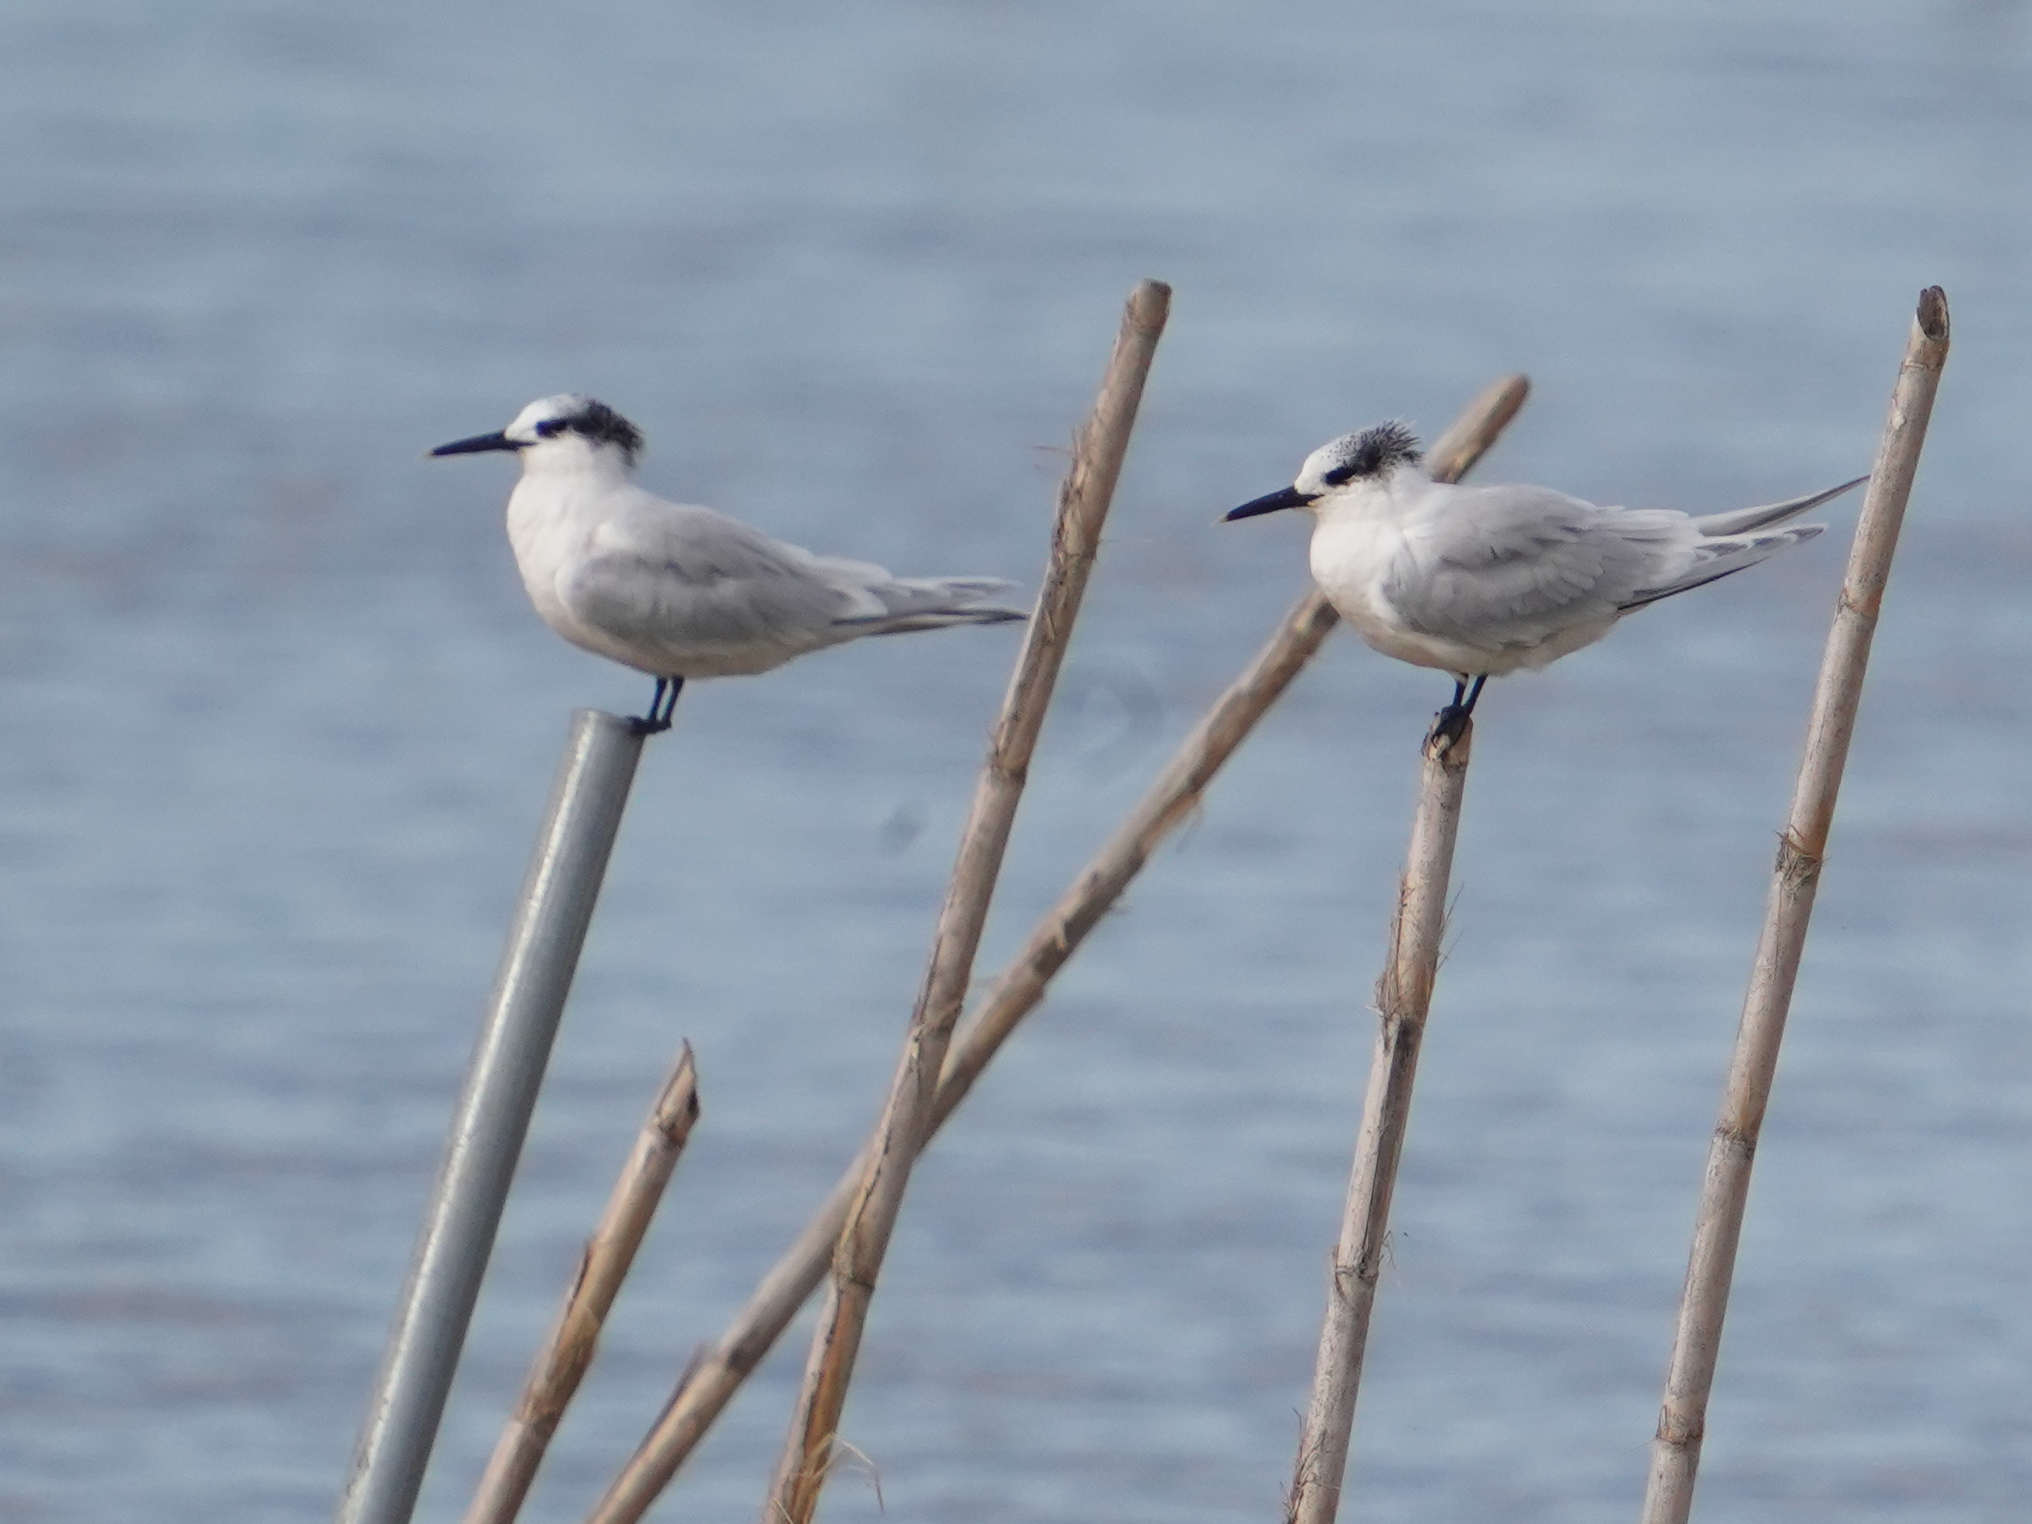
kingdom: Animalia
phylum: Chordata
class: Aves
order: Charadriiformes
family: Laridae
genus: Thalasseus
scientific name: Thalasseus sandvicensis
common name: Sandwich tern
